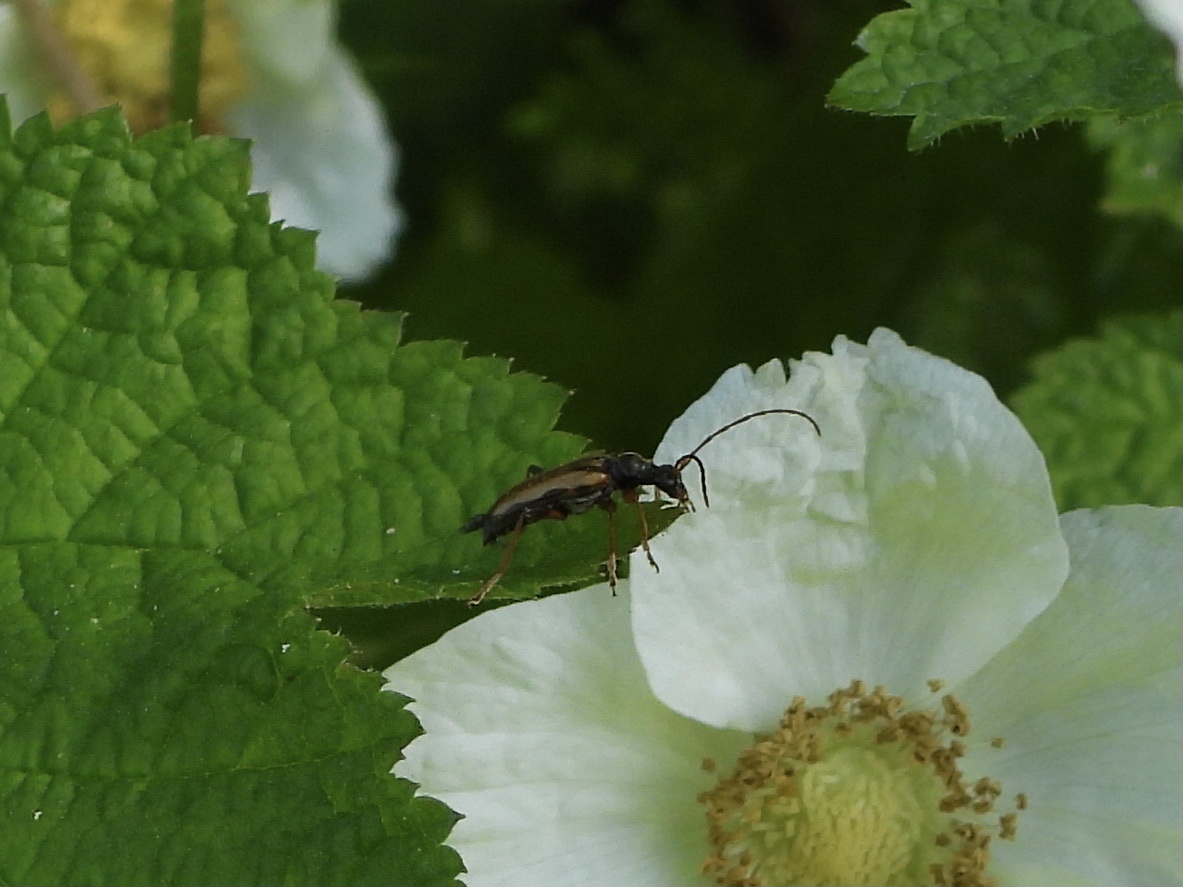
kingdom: Animalia
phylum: Arthropoda
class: Insecta
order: Coleoptera
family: Cerambycidae
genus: Pidonia
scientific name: Pidonia scripta
